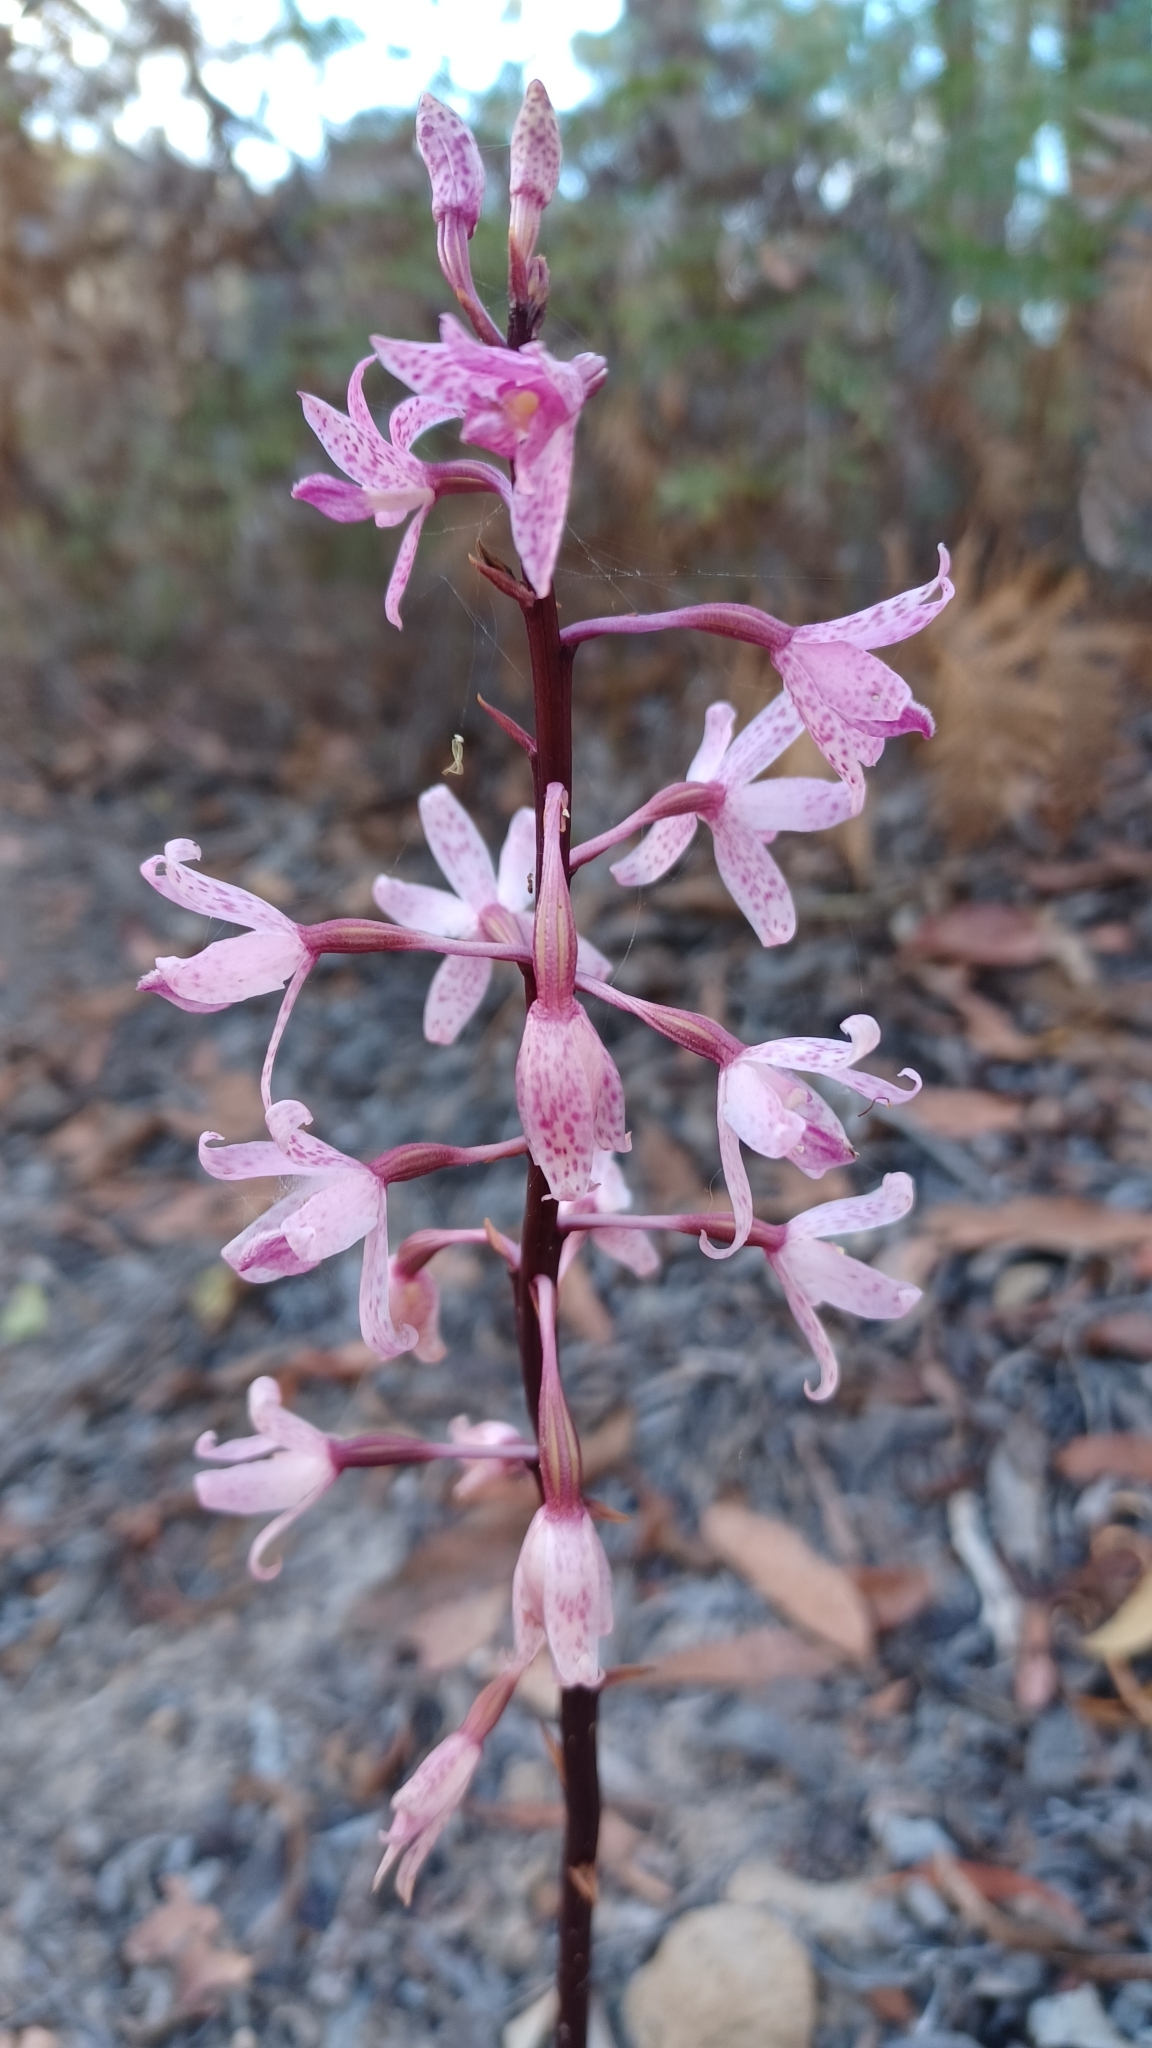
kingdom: Plantae
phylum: Tracheophyta
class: Liliopsida
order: Asparagales
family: Orchidaceae
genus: Dipodium
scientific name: Dipodium roseum
